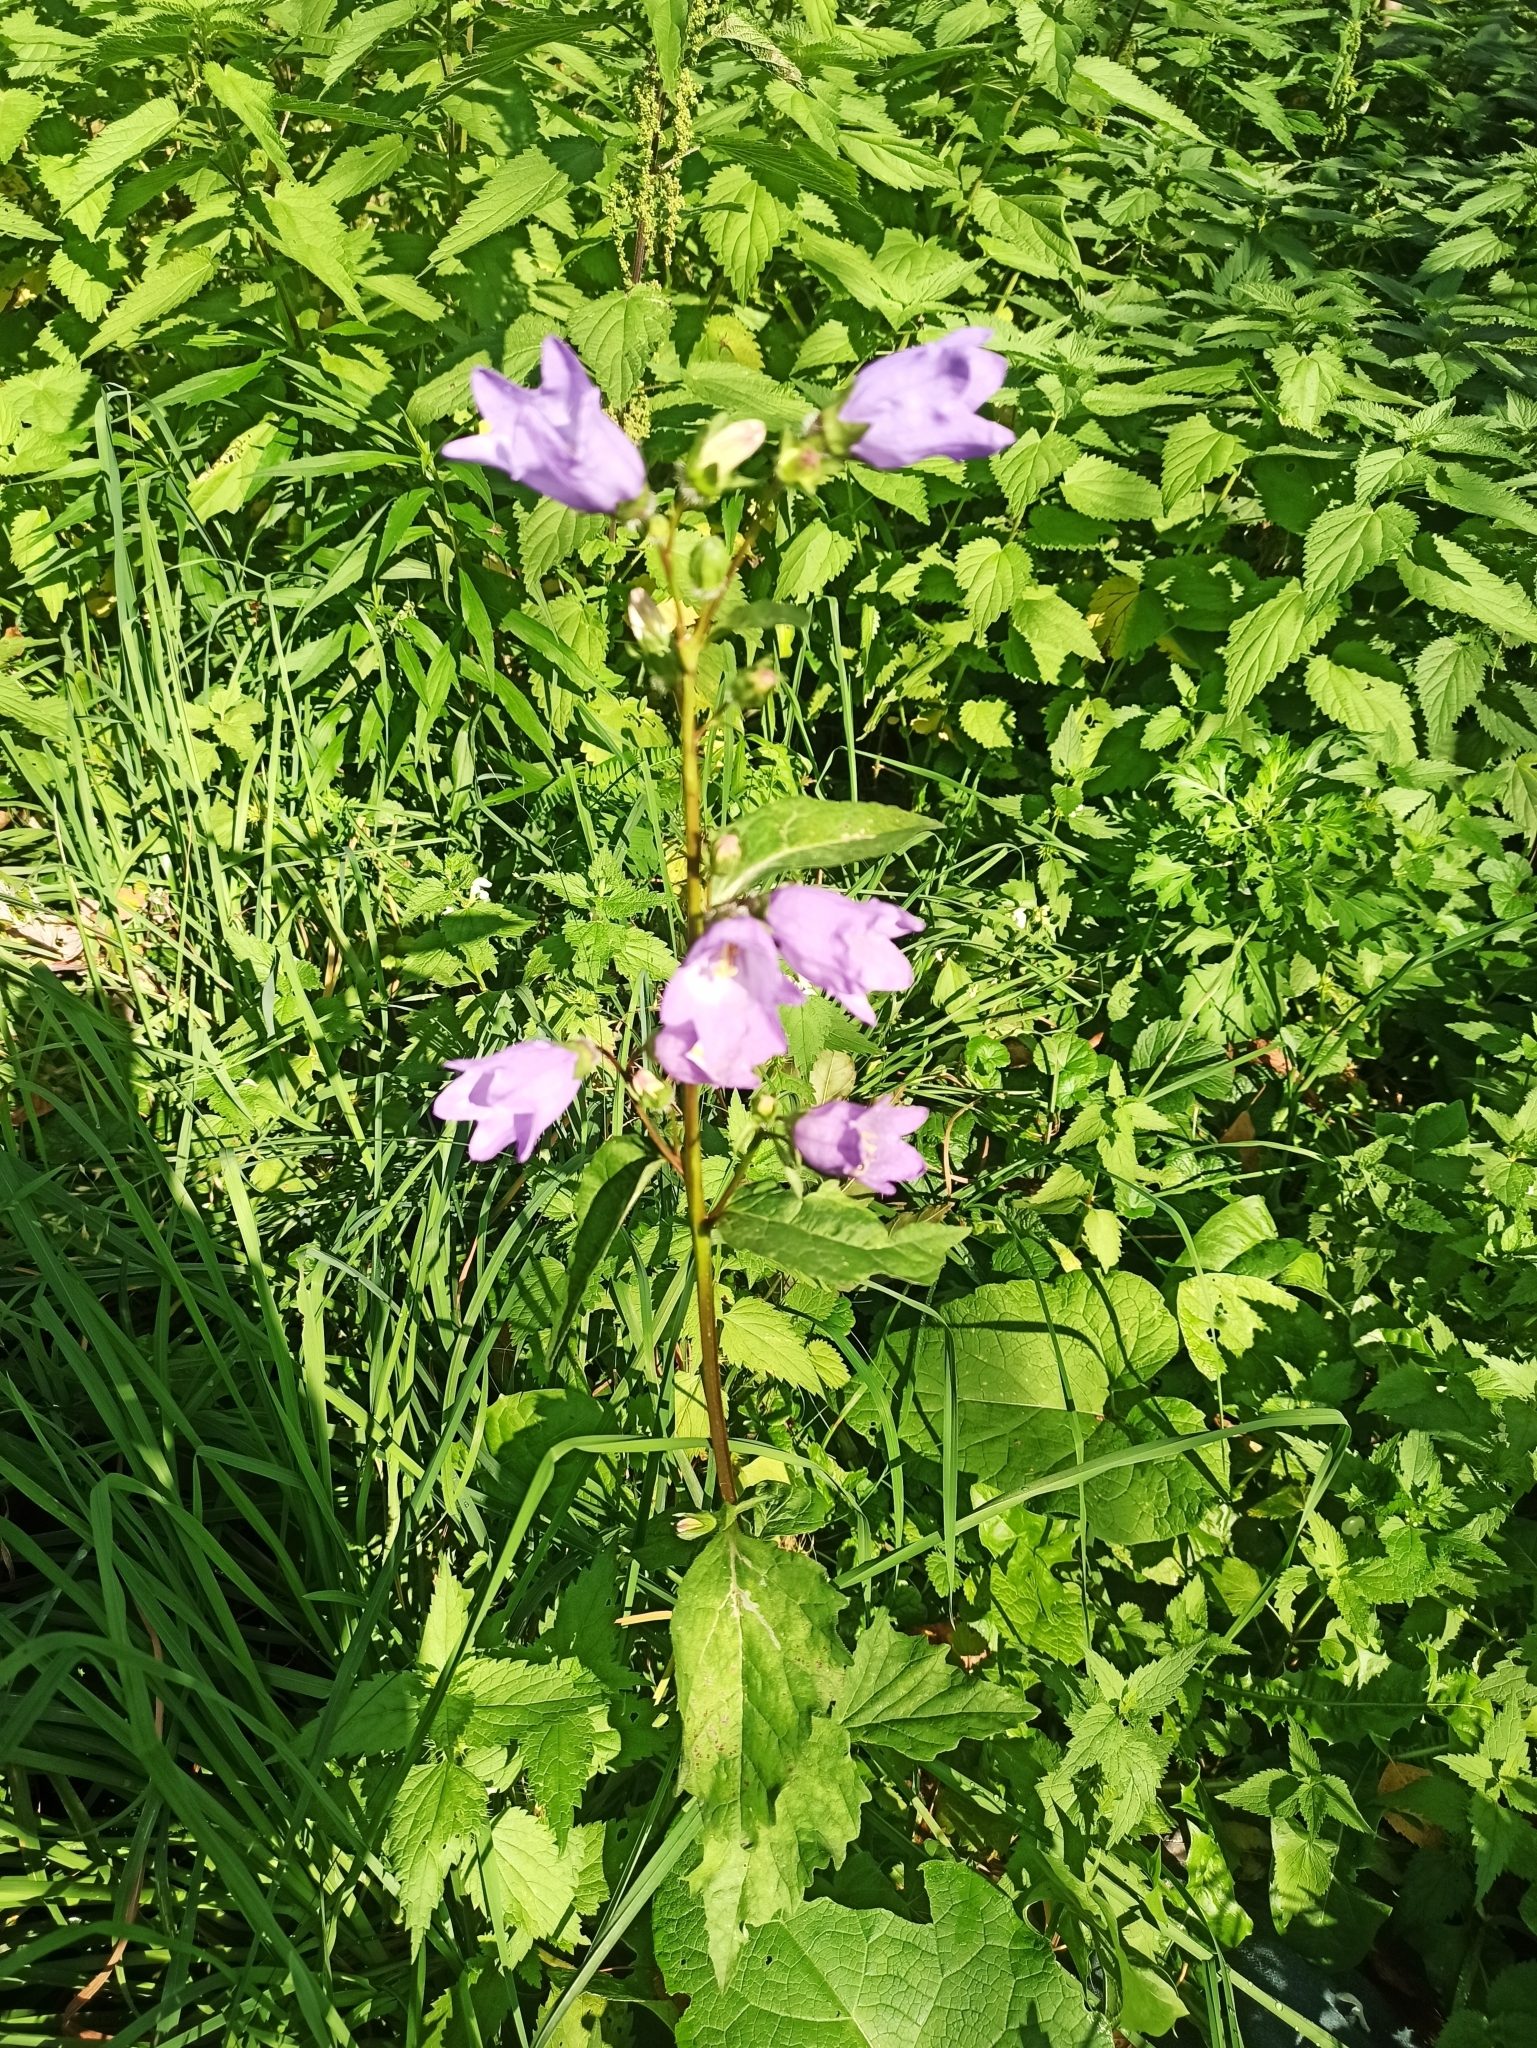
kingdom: Plantae
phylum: Tracheophyta
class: Magnoliopsida
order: Asterales
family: Campanulaceae
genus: Campanula
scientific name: Campanula trachelium
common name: Nettle-leaved bellflower
